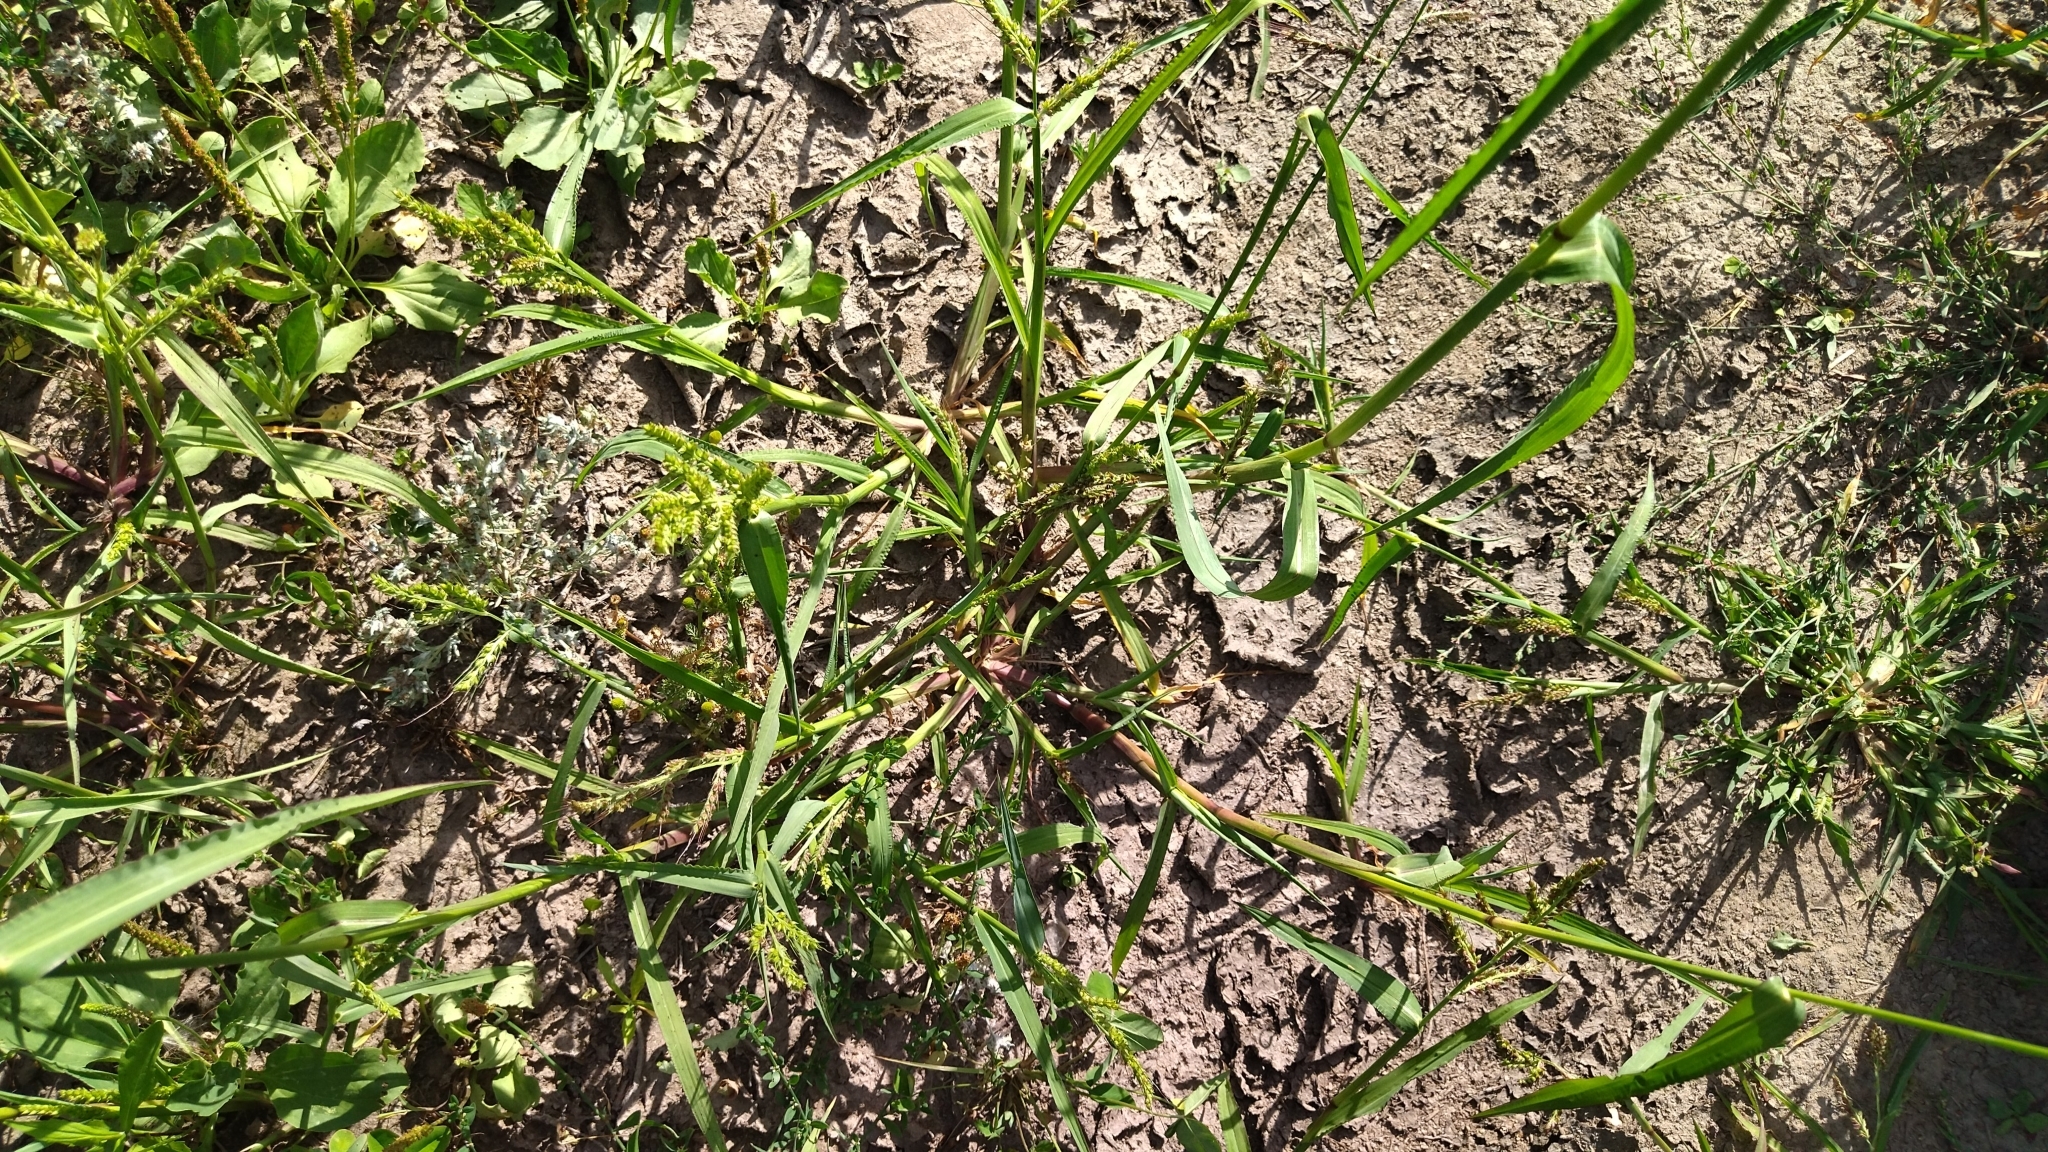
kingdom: Plantae
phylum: Tracheophyta
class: Liliopsida
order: Poales
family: Poaceae
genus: Echinochloa
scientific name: Echinochloa crus-galli
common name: Cockspur
